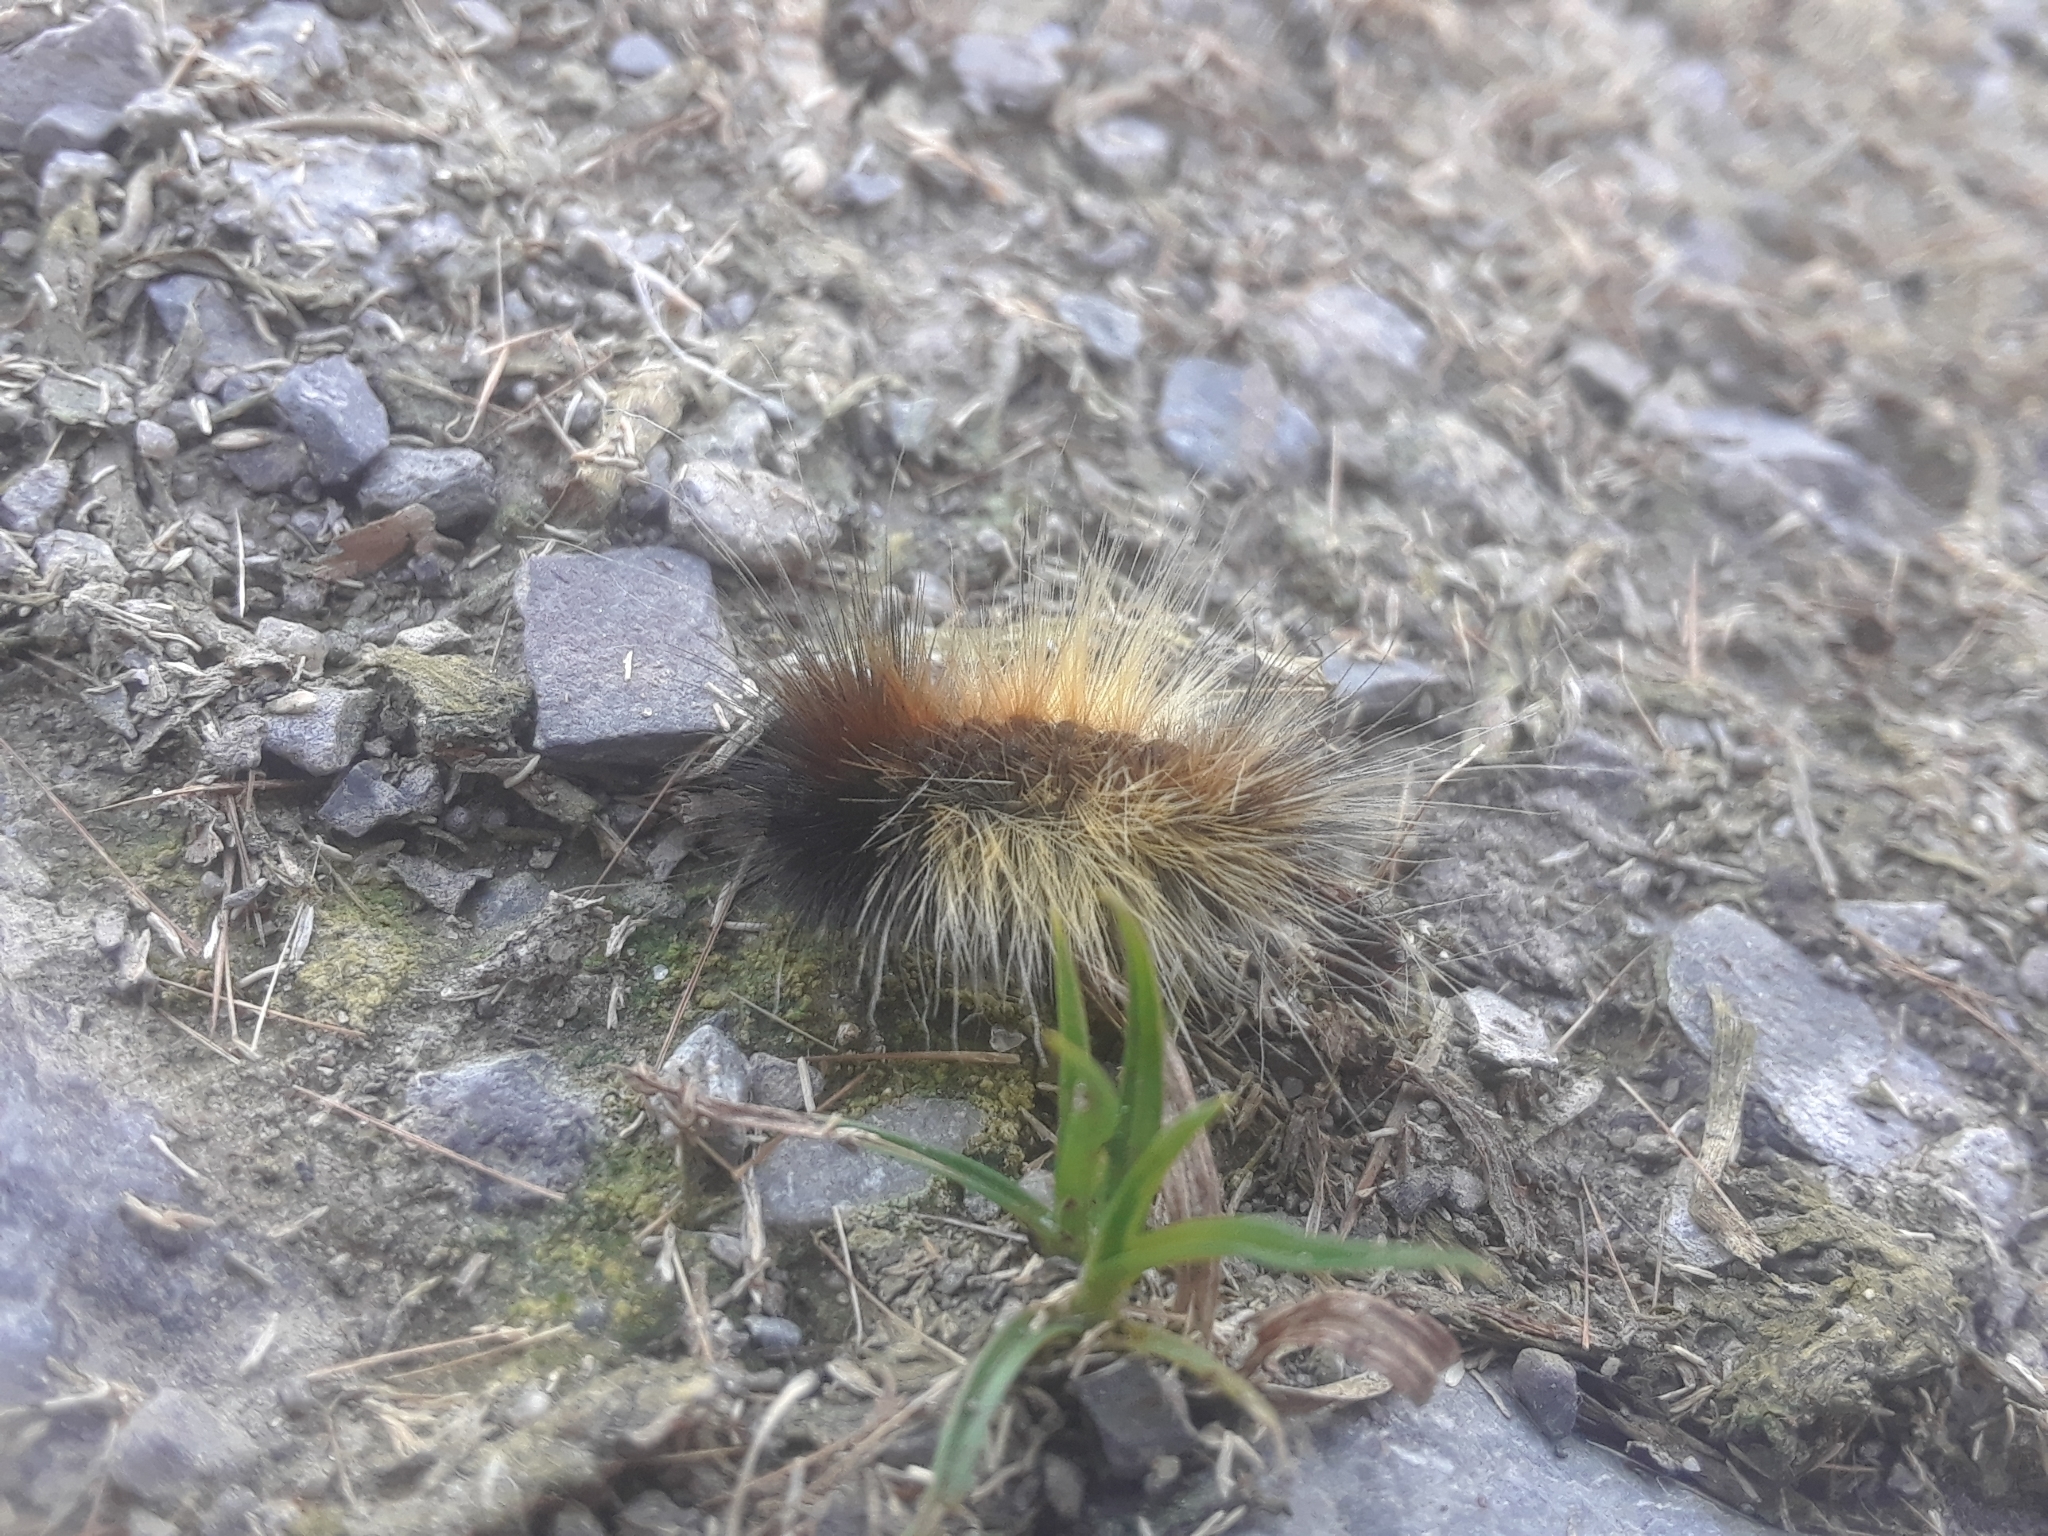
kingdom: Animalia
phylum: Arthropoda
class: Insecta
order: Lepidoptera
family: Erebidae
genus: Arctia
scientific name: Arctia caja
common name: Garden tiger
